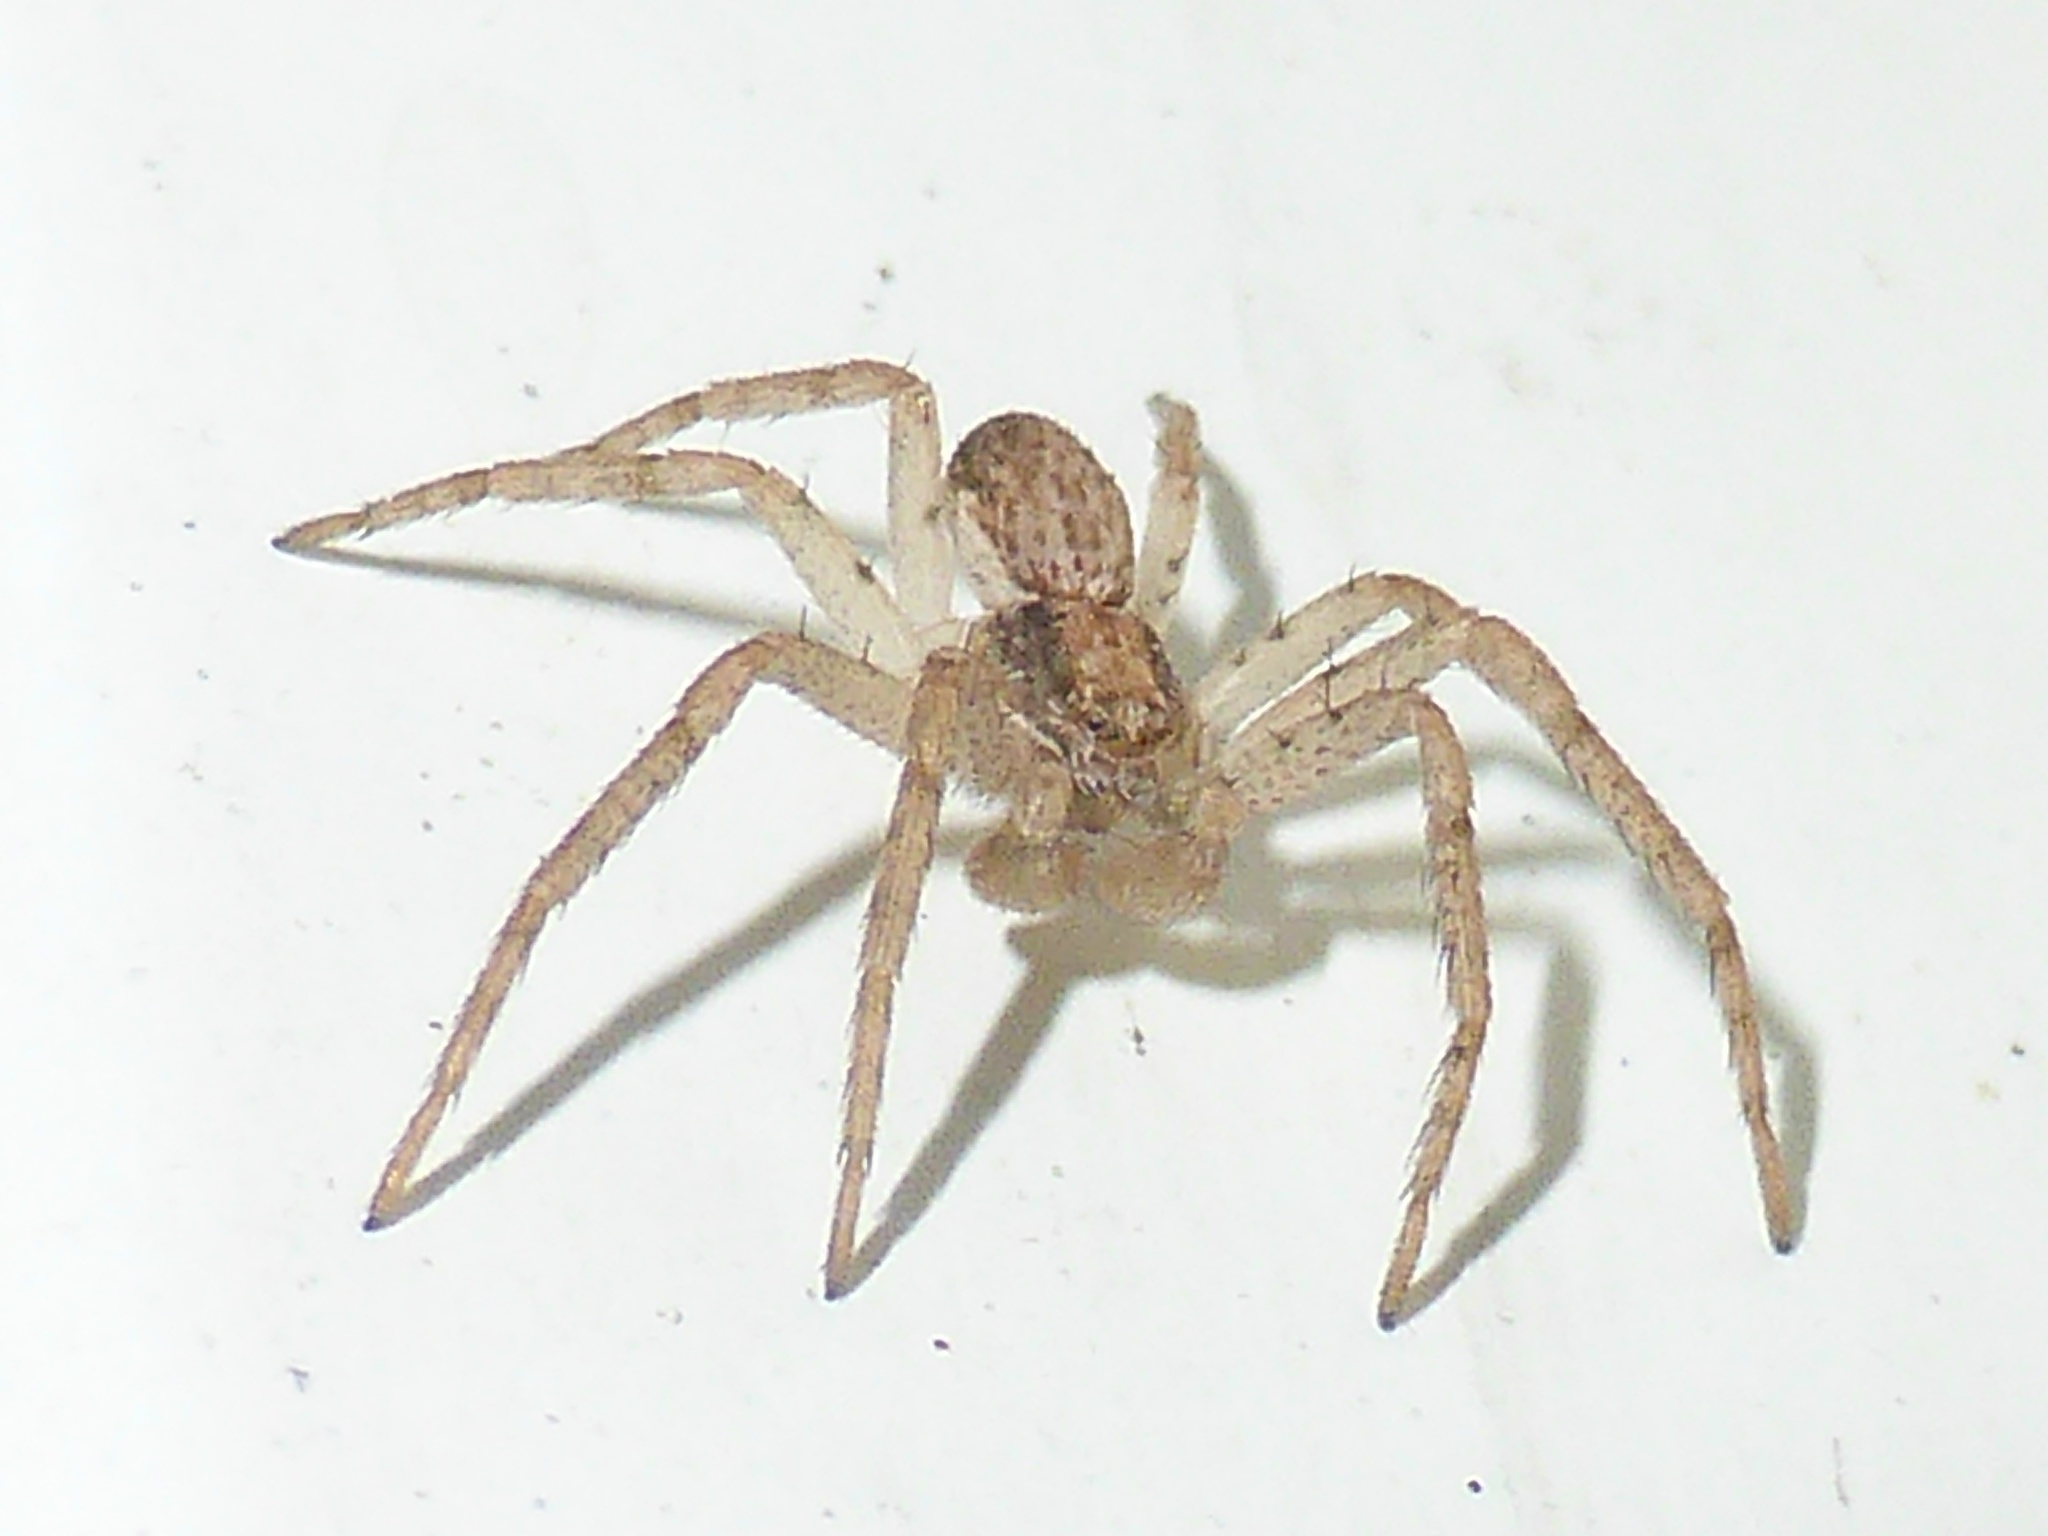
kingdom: Animalia
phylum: Arthropoda
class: Arachnida
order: Araneae
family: Philodromidae
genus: Philodromus
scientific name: Philodromus dispar
